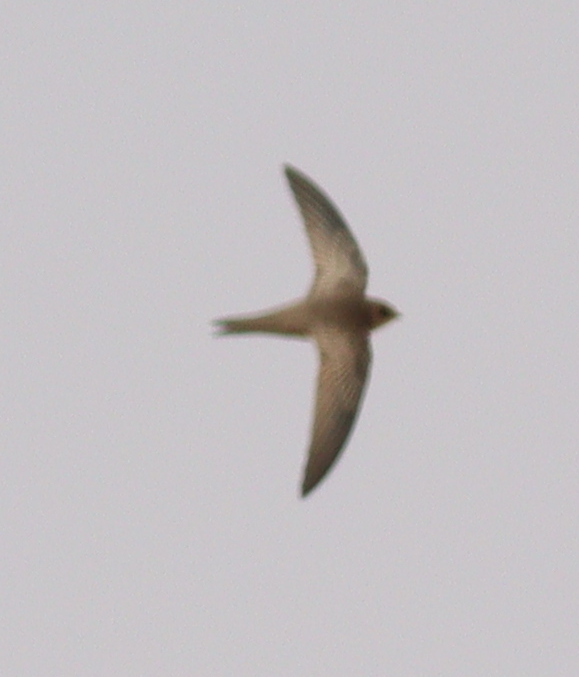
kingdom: Animalia
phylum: Chordata
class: Aves
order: Apodiformes
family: Apodidae
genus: Apus
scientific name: Apus pallidus
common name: Pallid swift
